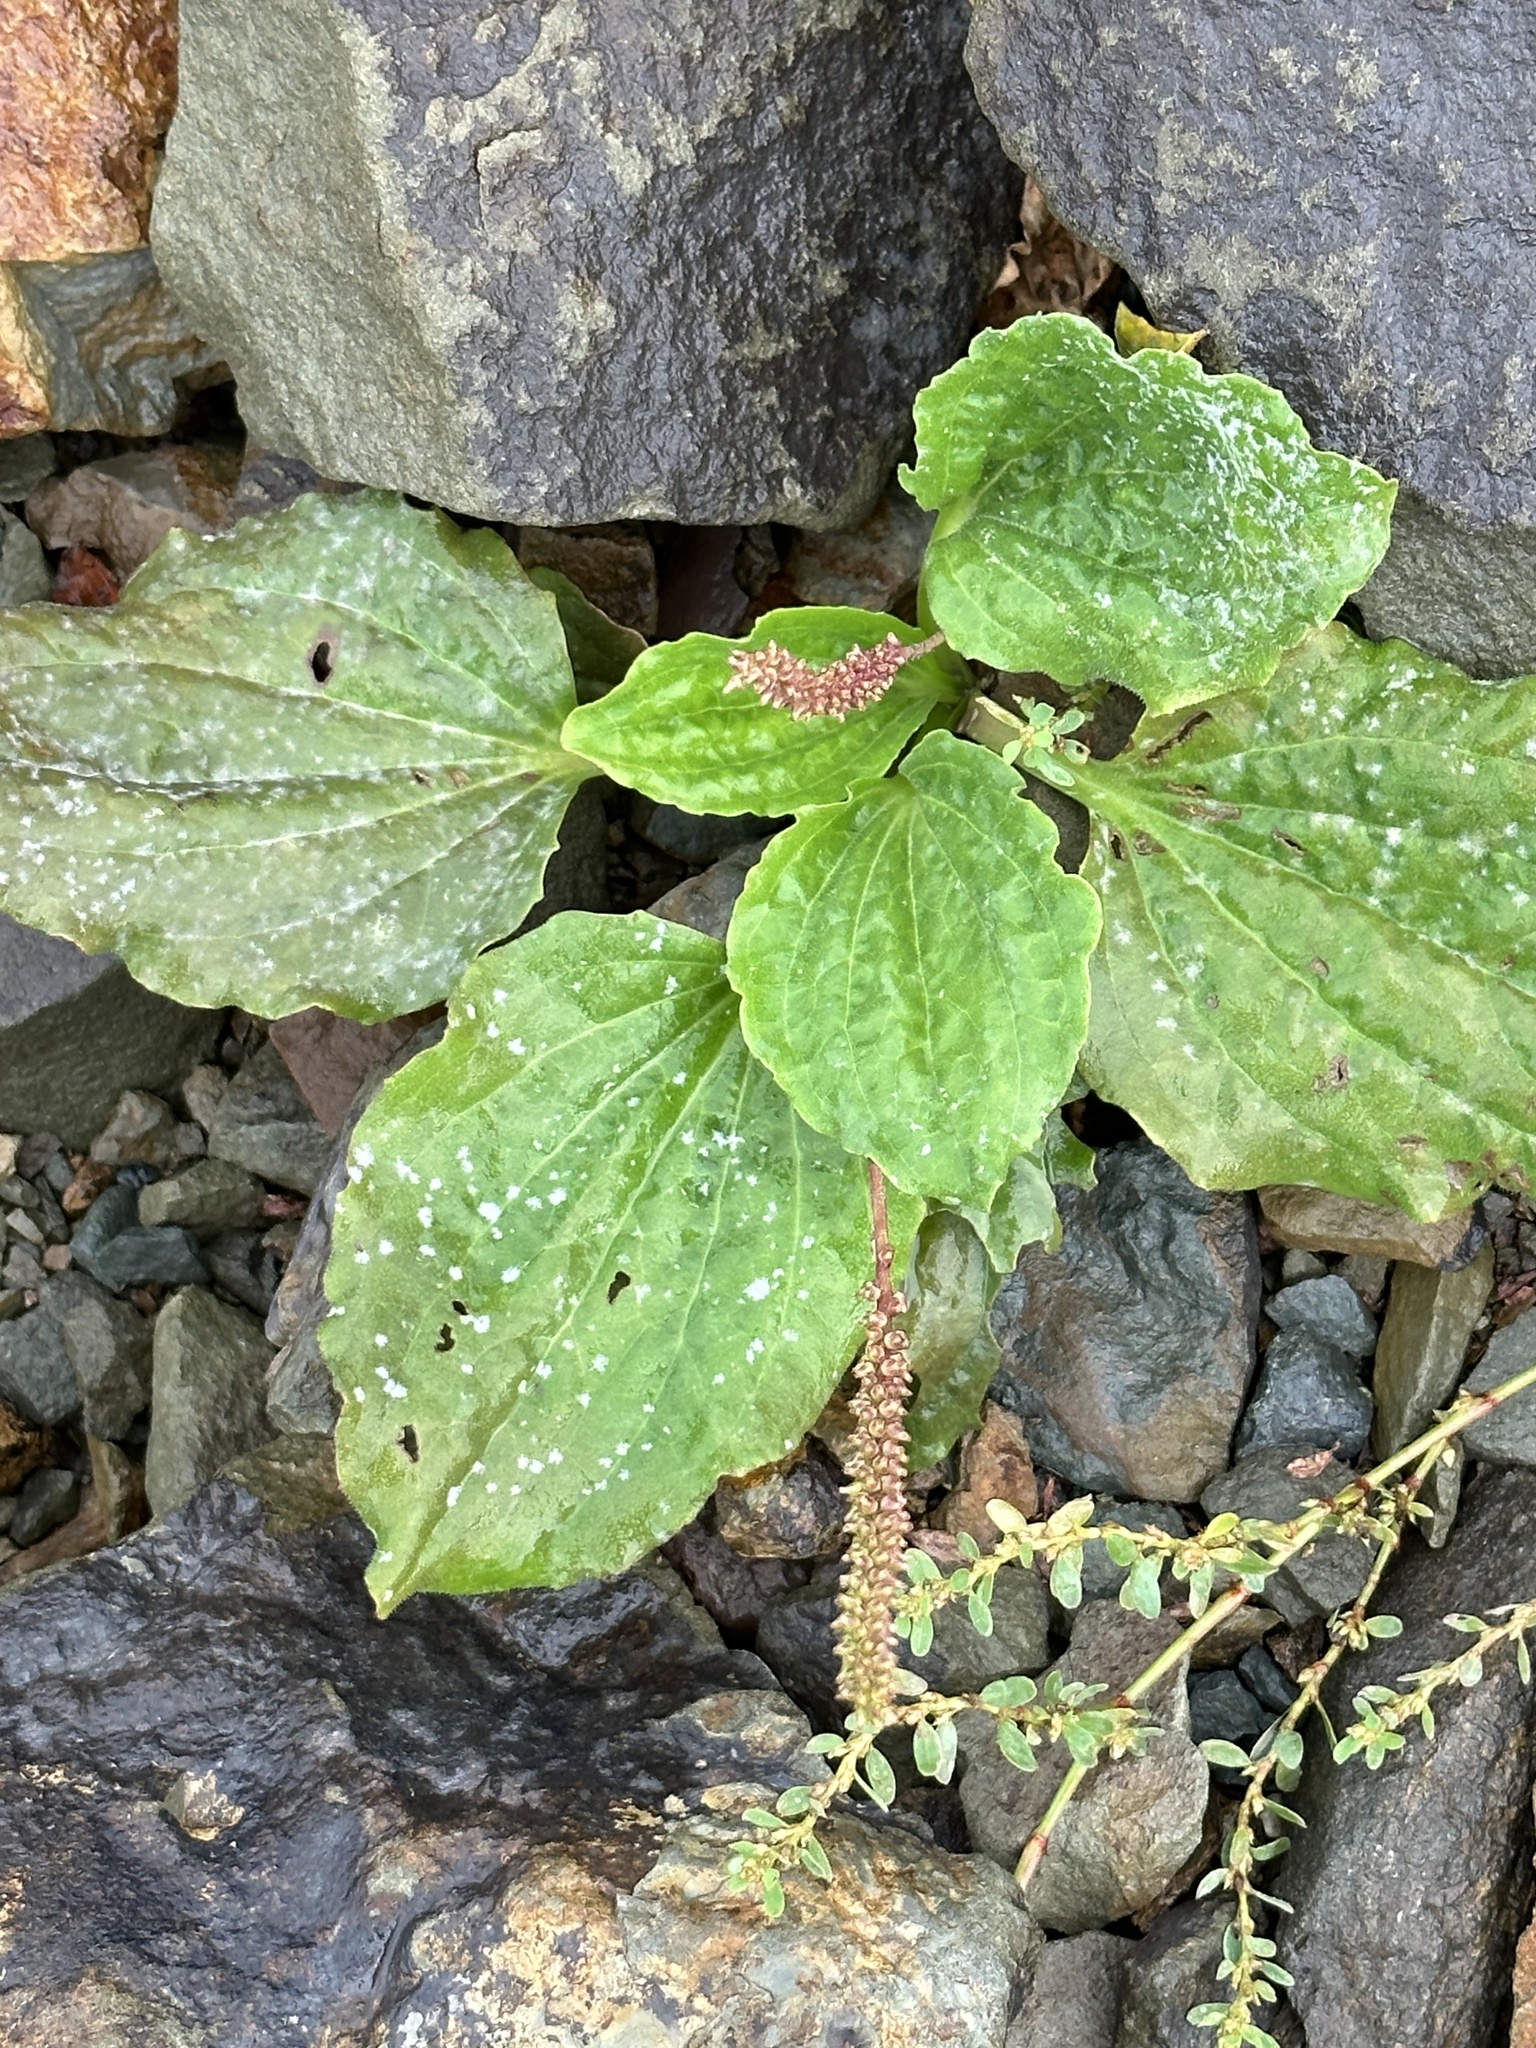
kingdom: Plantae
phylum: Tracheophyta
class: Magnoliopsida
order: Lamiales
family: Plantaginaceae
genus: Plantago
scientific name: Plantago major
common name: Common plantain
